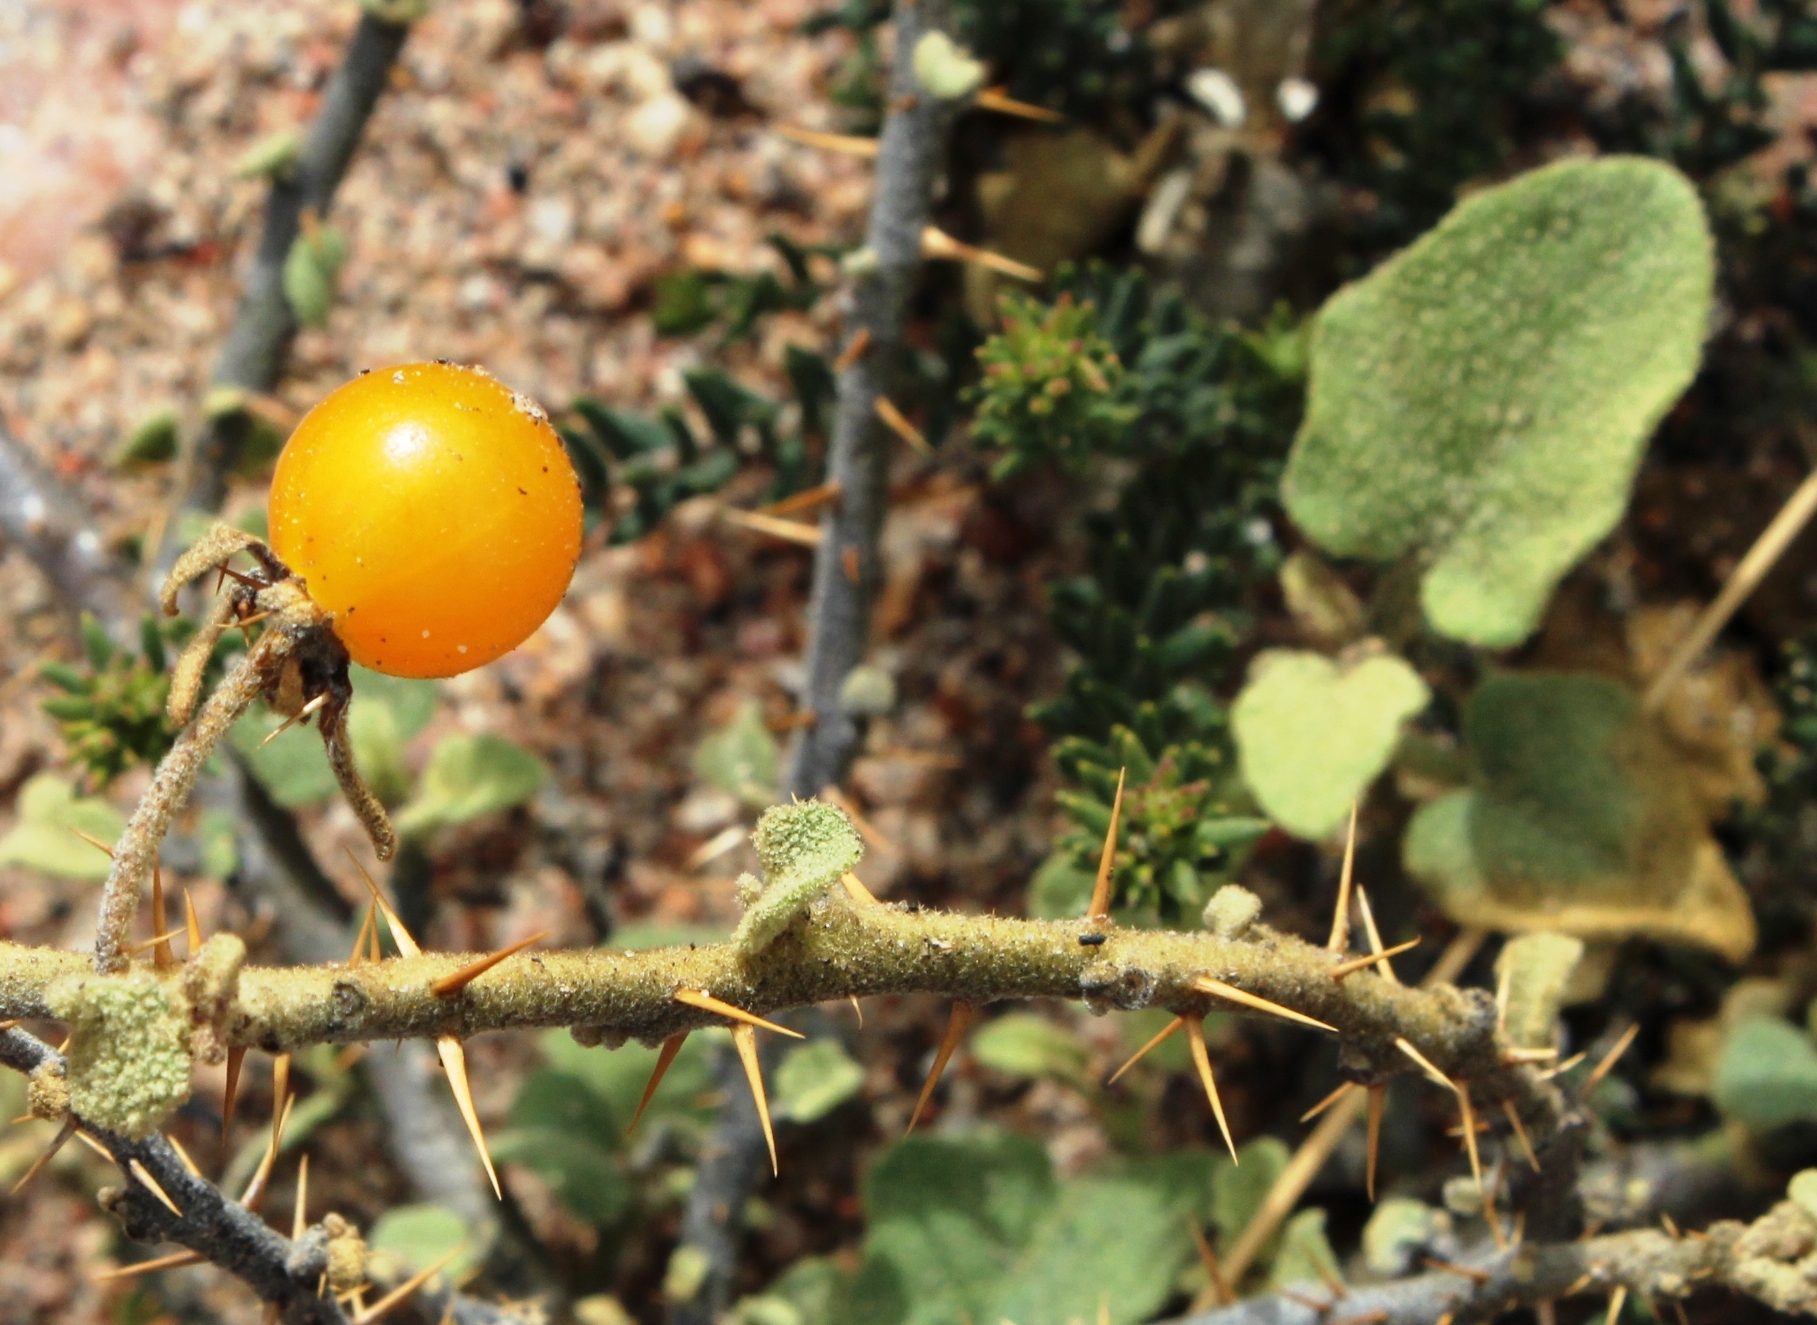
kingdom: Plantae
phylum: Tracheophyta
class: Magnoliopsida
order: Solanales
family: Solanaceae
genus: Solanum
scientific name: Solanum tomentosum
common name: Wild aubergine
